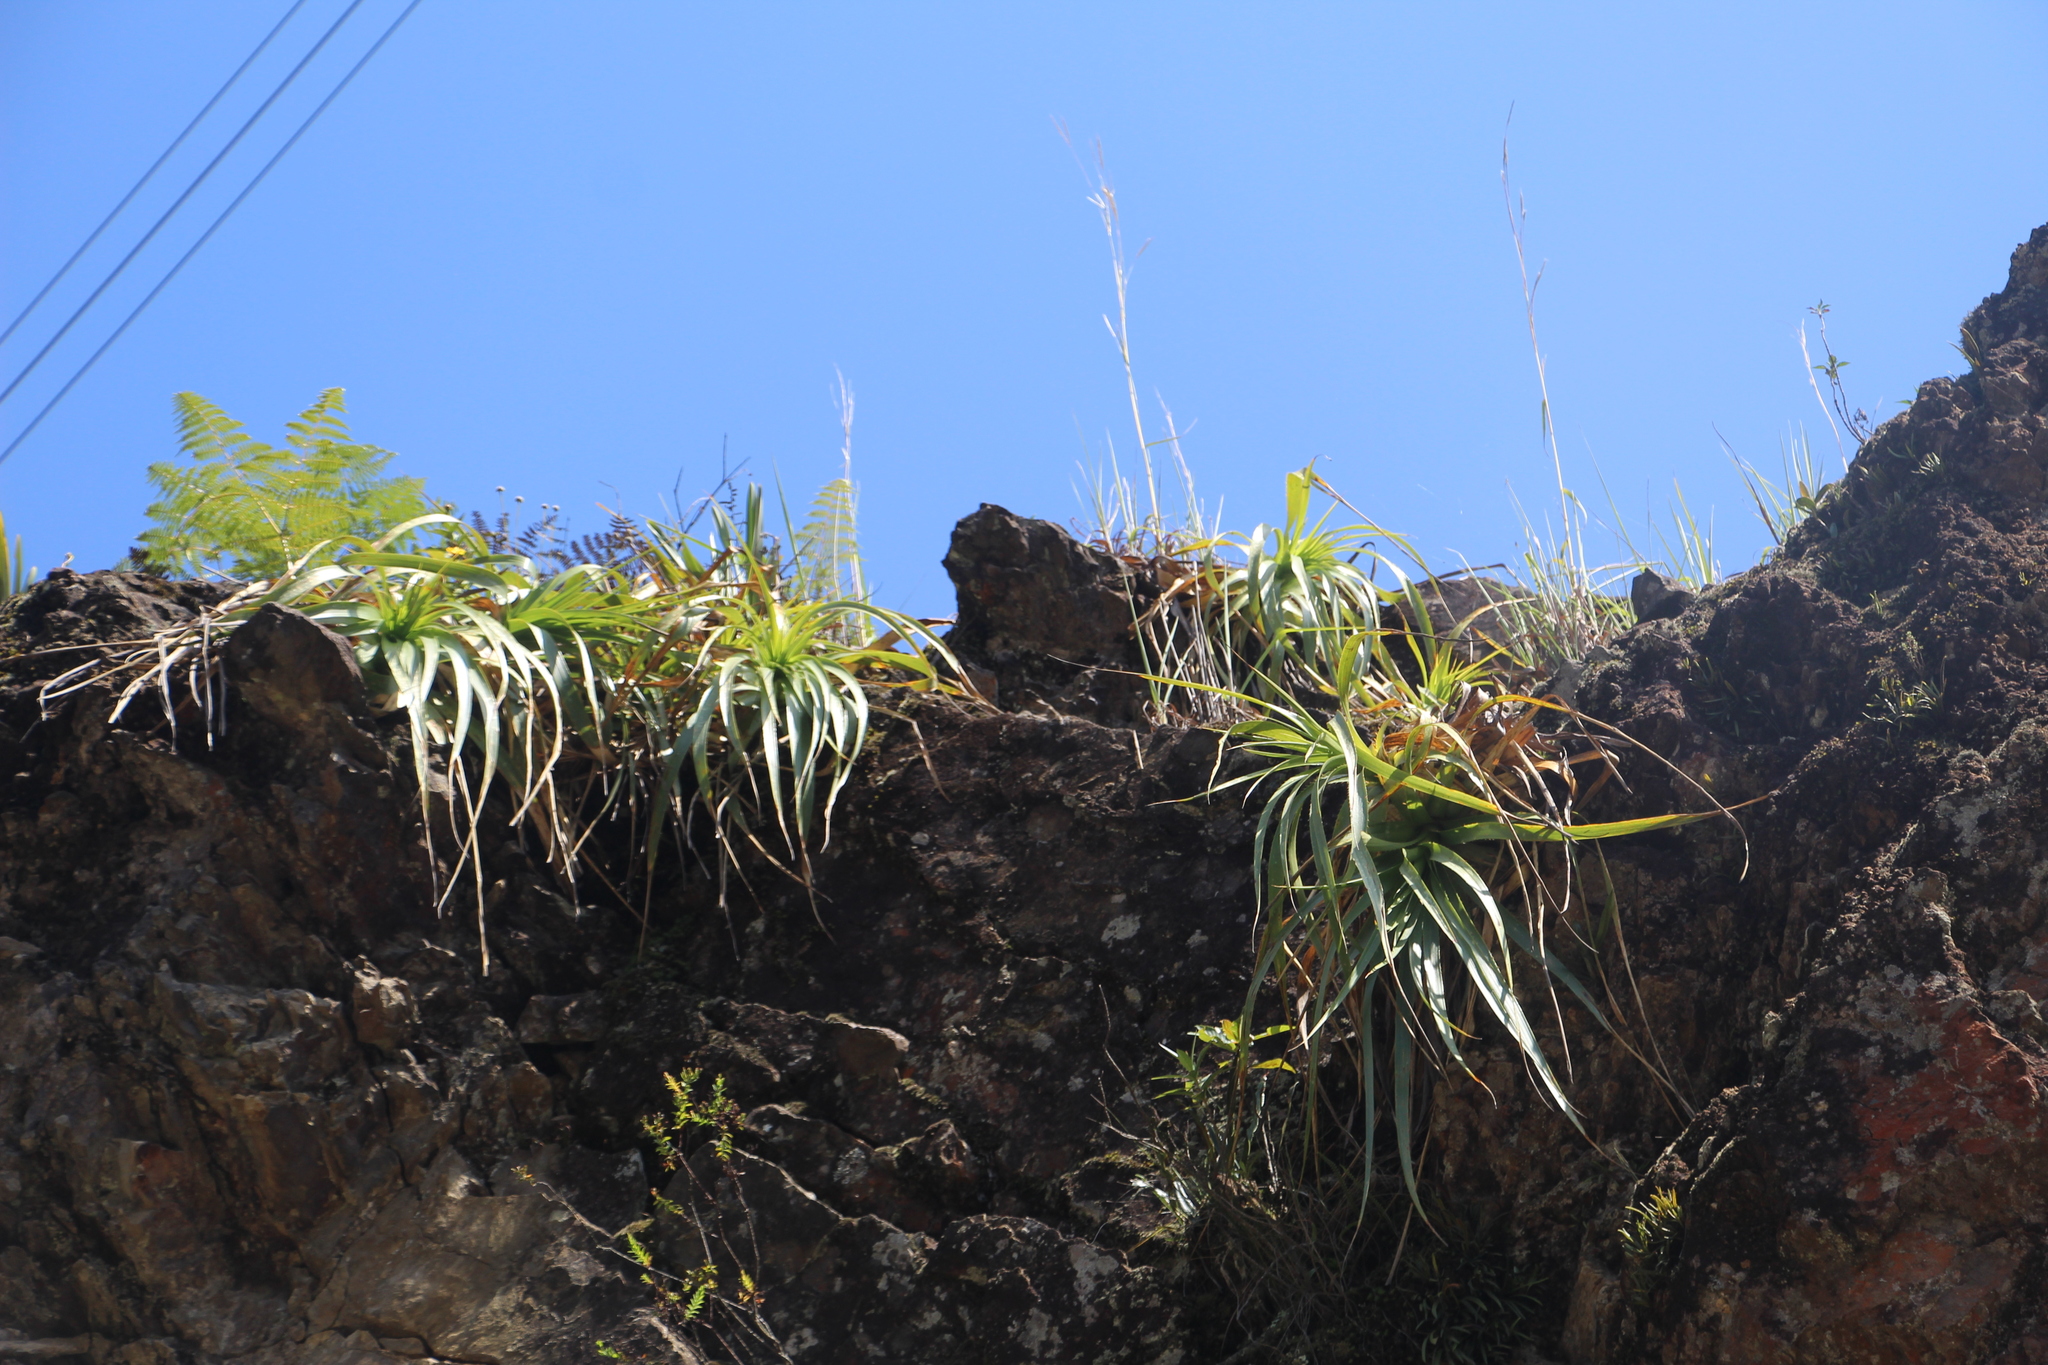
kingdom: Plantae
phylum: Tracheophyta
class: Liliopsida
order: Poales
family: Bromeliaceae
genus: Puya
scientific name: Puya
